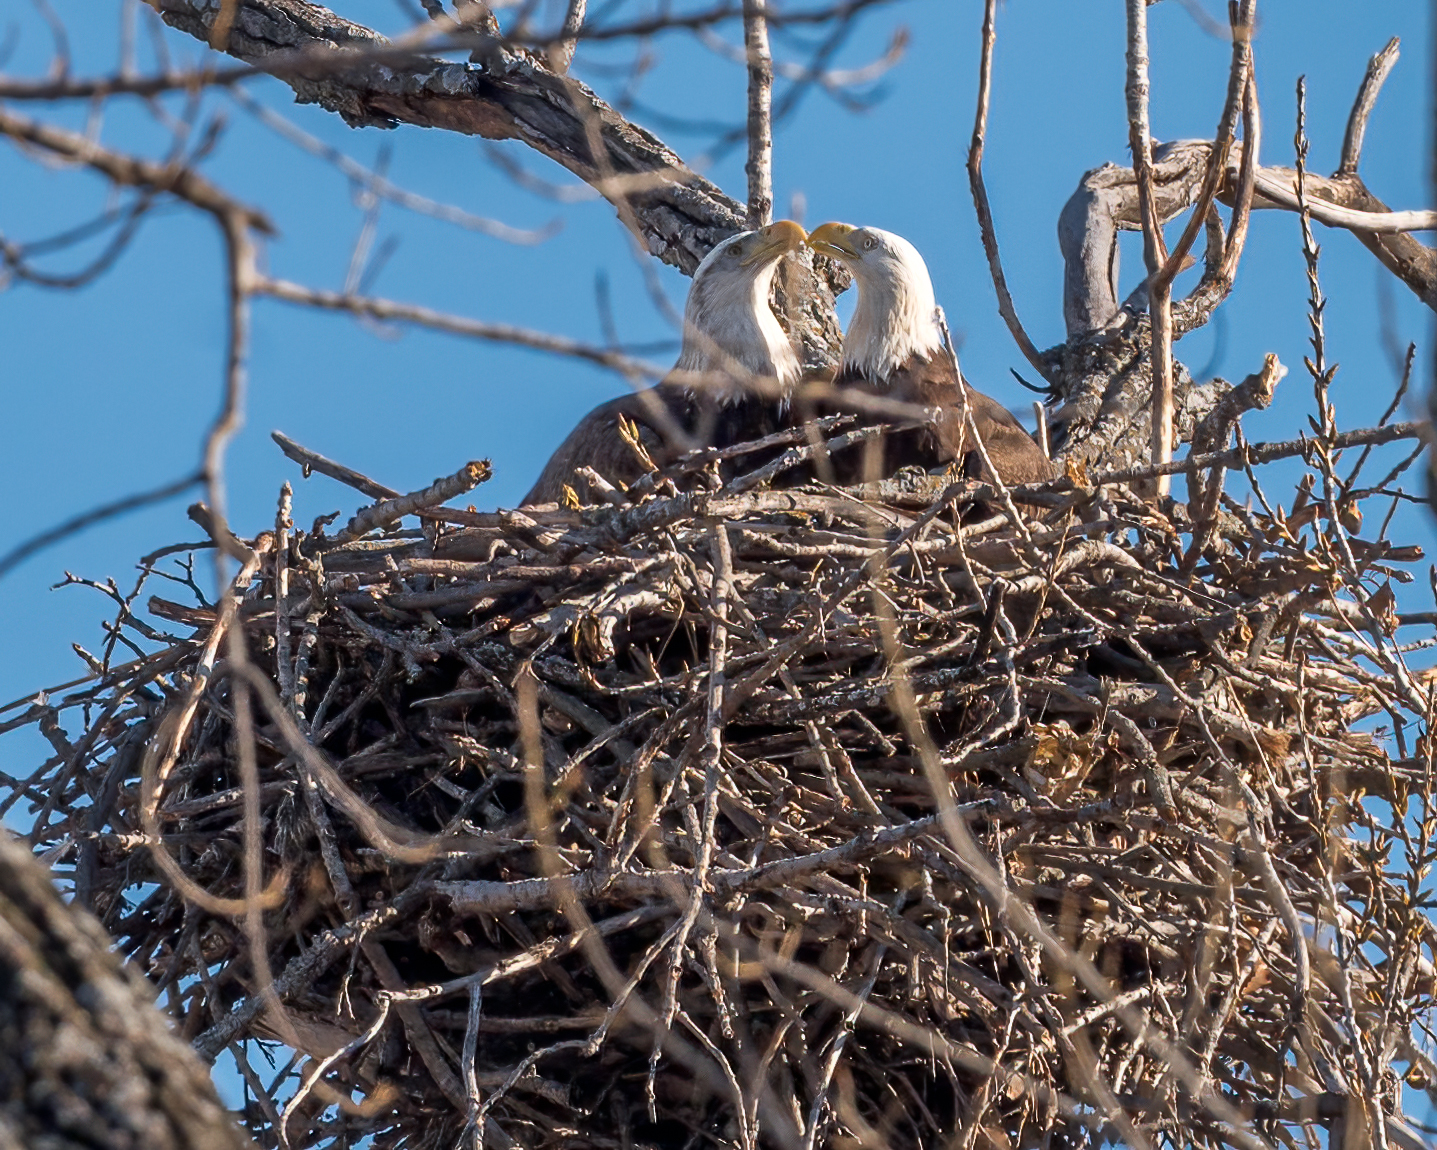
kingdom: Animalia
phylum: Chordata
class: Aves
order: Accipitriformes
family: Accipitridae
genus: Haliaeetus
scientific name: Haliaeetus leucocephalus
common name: Bald eagle
